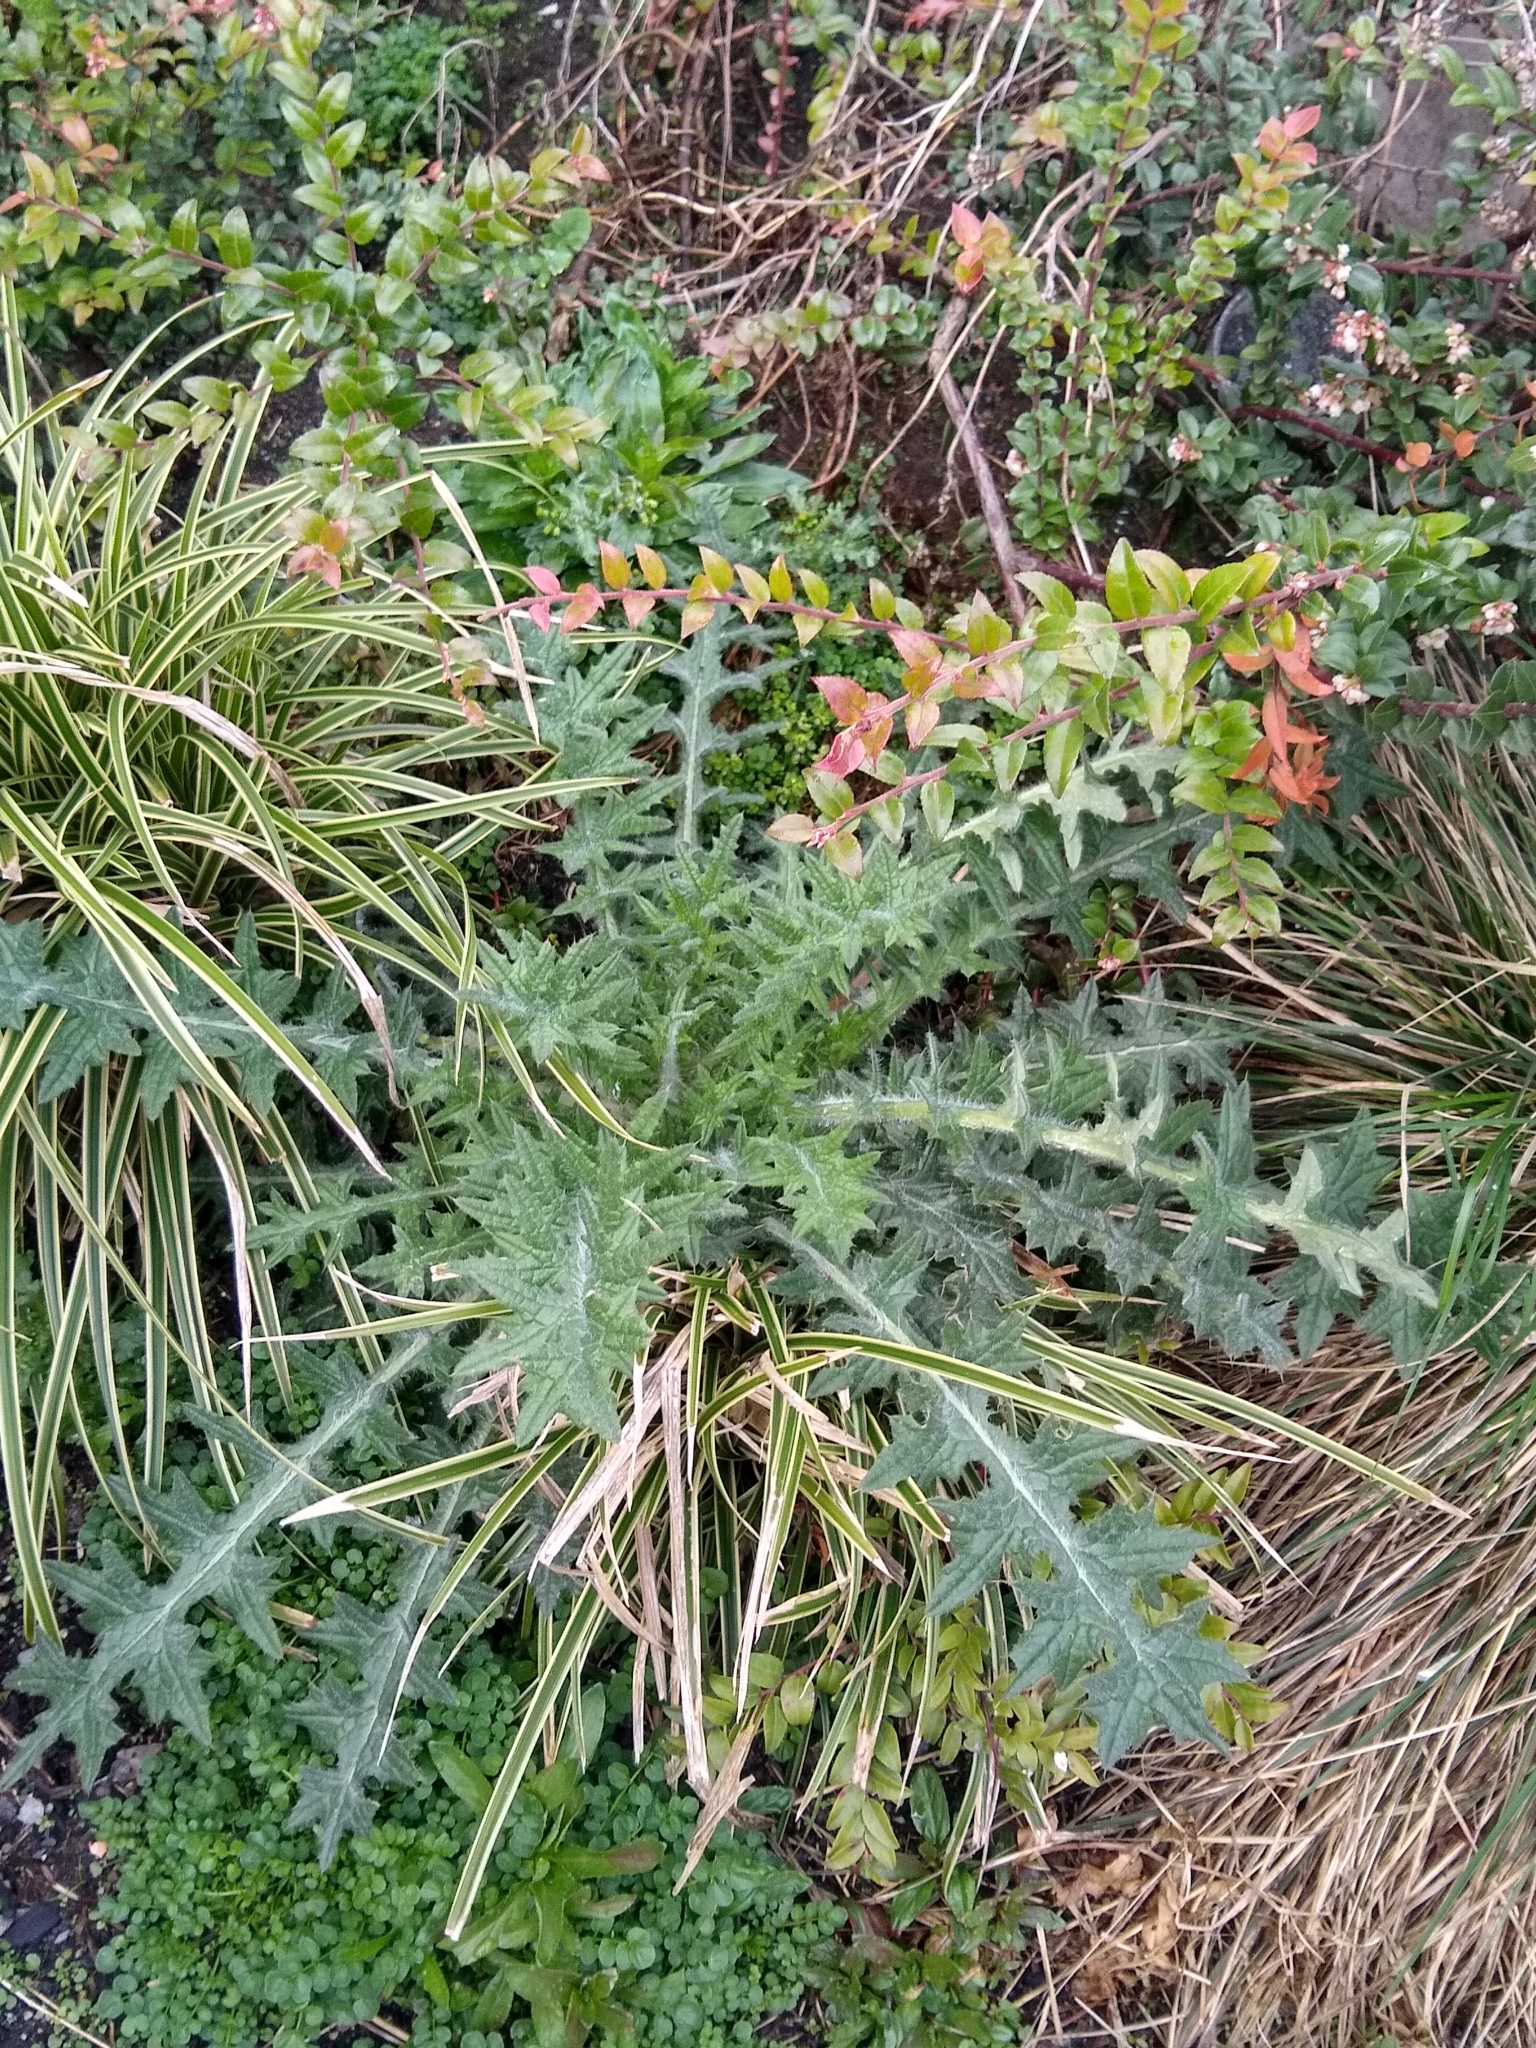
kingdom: Plantae
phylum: Tracheophyta
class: Magnoliopsida
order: Asterales
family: Asteraceae
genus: Cirsium
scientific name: Cirsium vulgare
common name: Bull thistle
